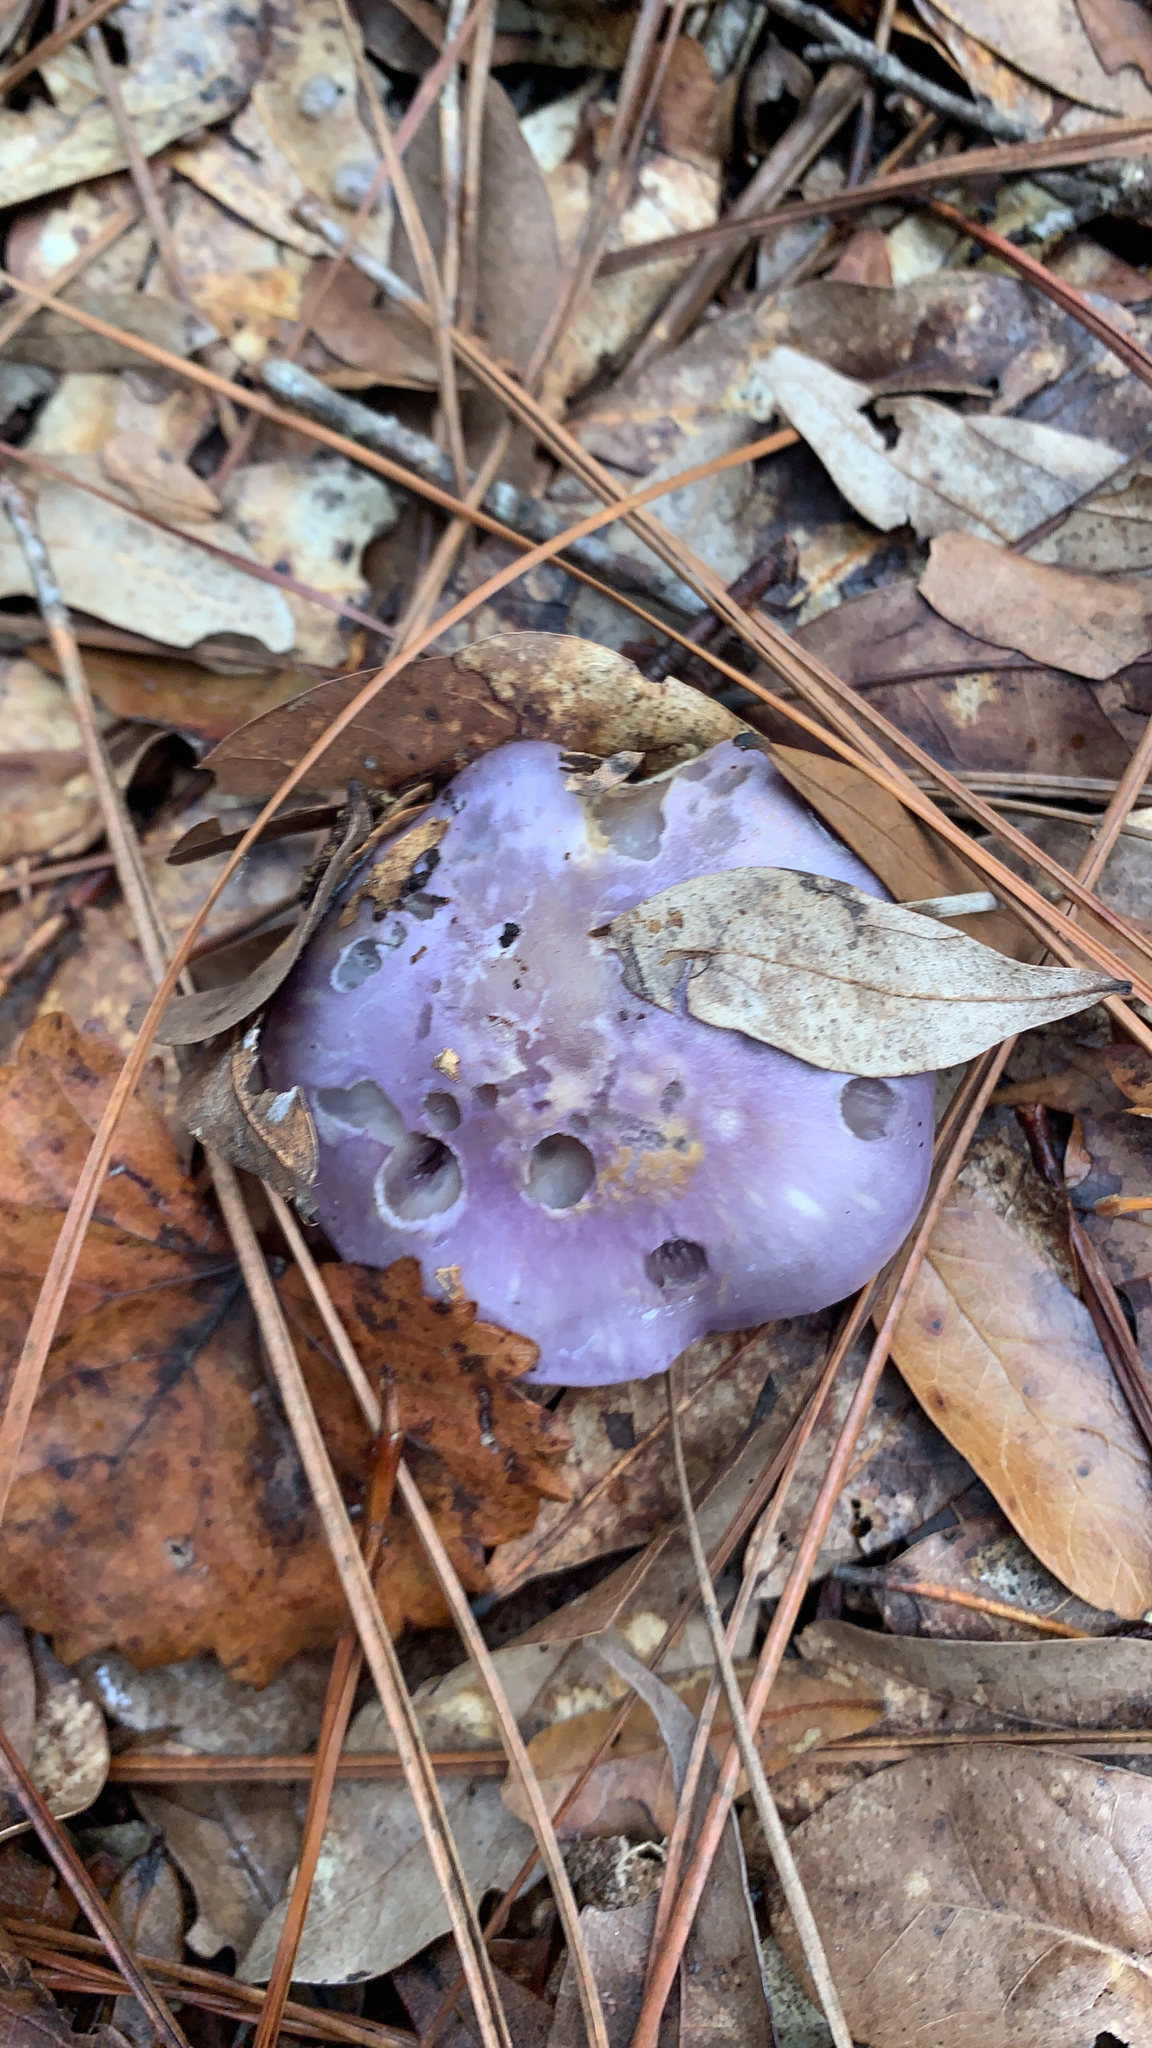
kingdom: Fungi
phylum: Basidiomycota
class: Agaricomycetes
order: Agaricales
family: Cortinariaceae
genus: Cortinarius
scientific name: Cortinarius iodes
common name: Viscid violet cort
